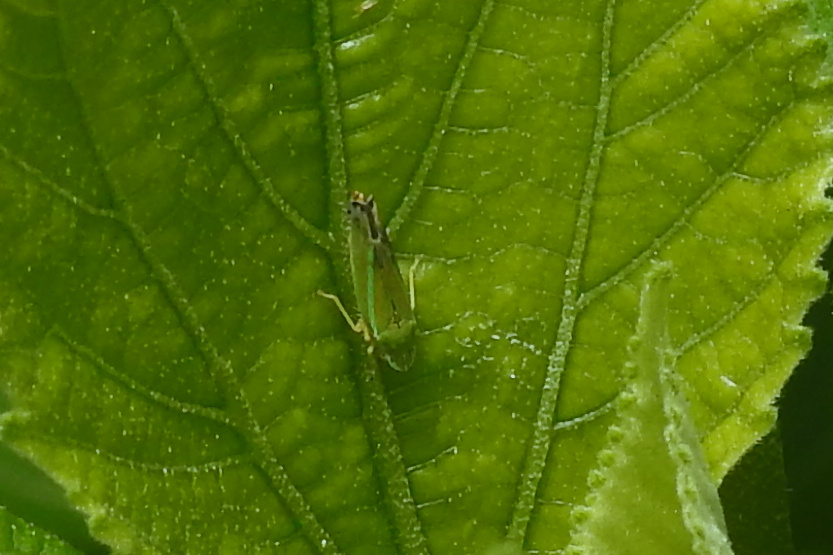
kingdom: Animalia
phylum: Arthropoda
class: Insecta
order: Hemiptera
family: Cicadellidae
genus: Graphocephala
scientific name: Graphocephala versuta
